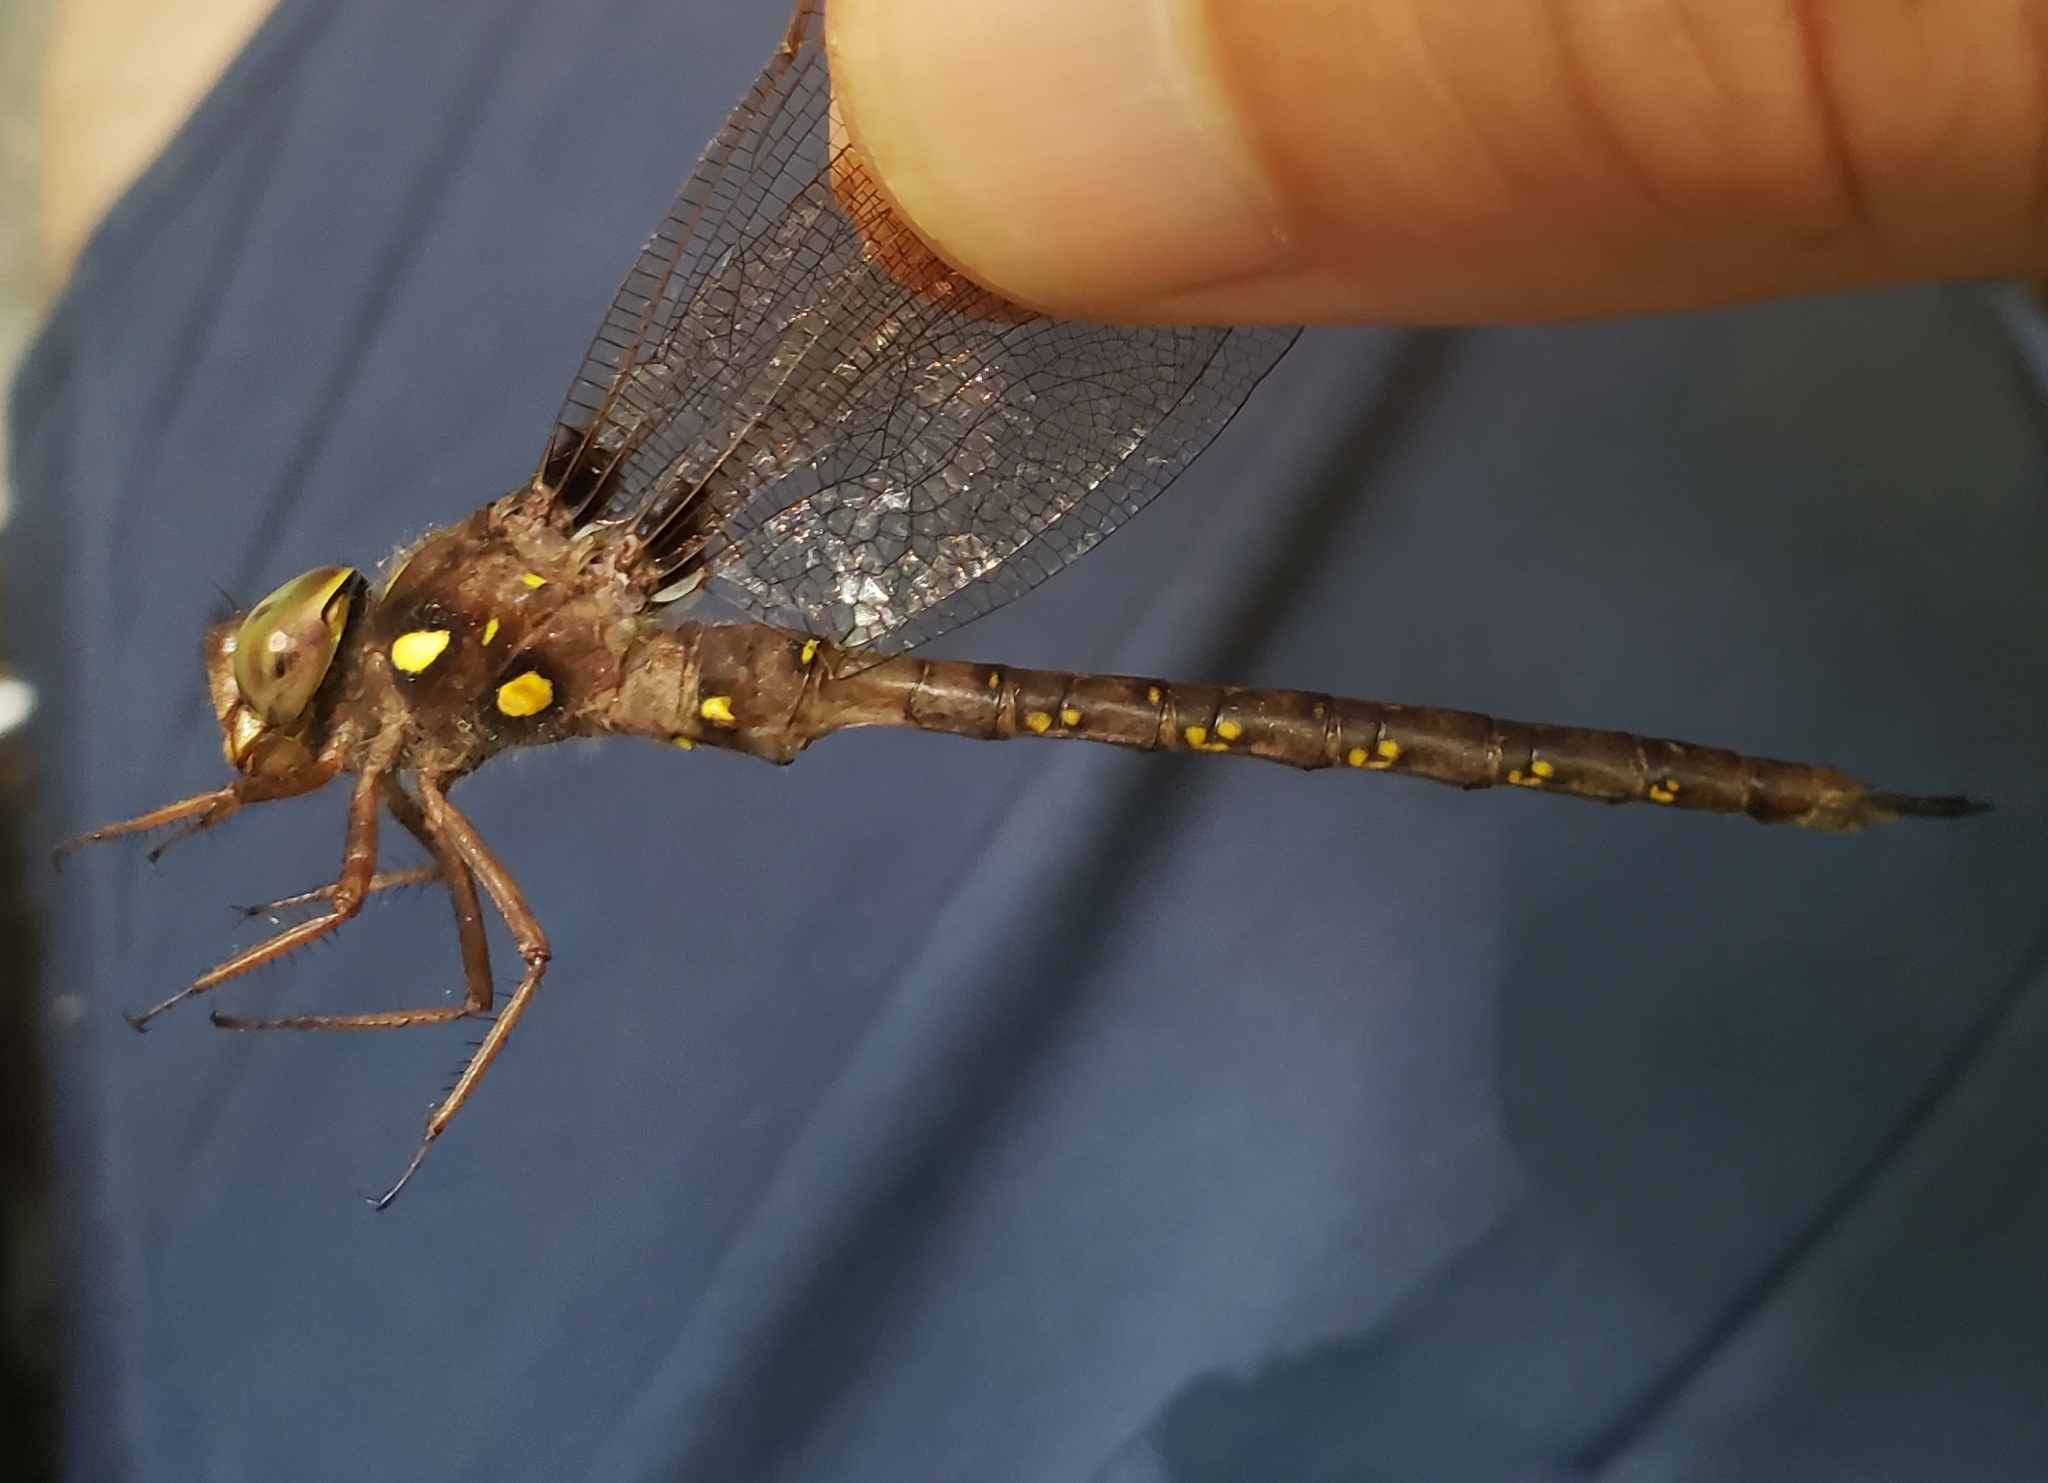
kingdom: Animalia
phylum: Arthropoda
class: Insecta
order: Odonata
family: Aeshnidae
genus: Boyeria
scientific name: Boyeria vinosa
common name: Fawn darner
